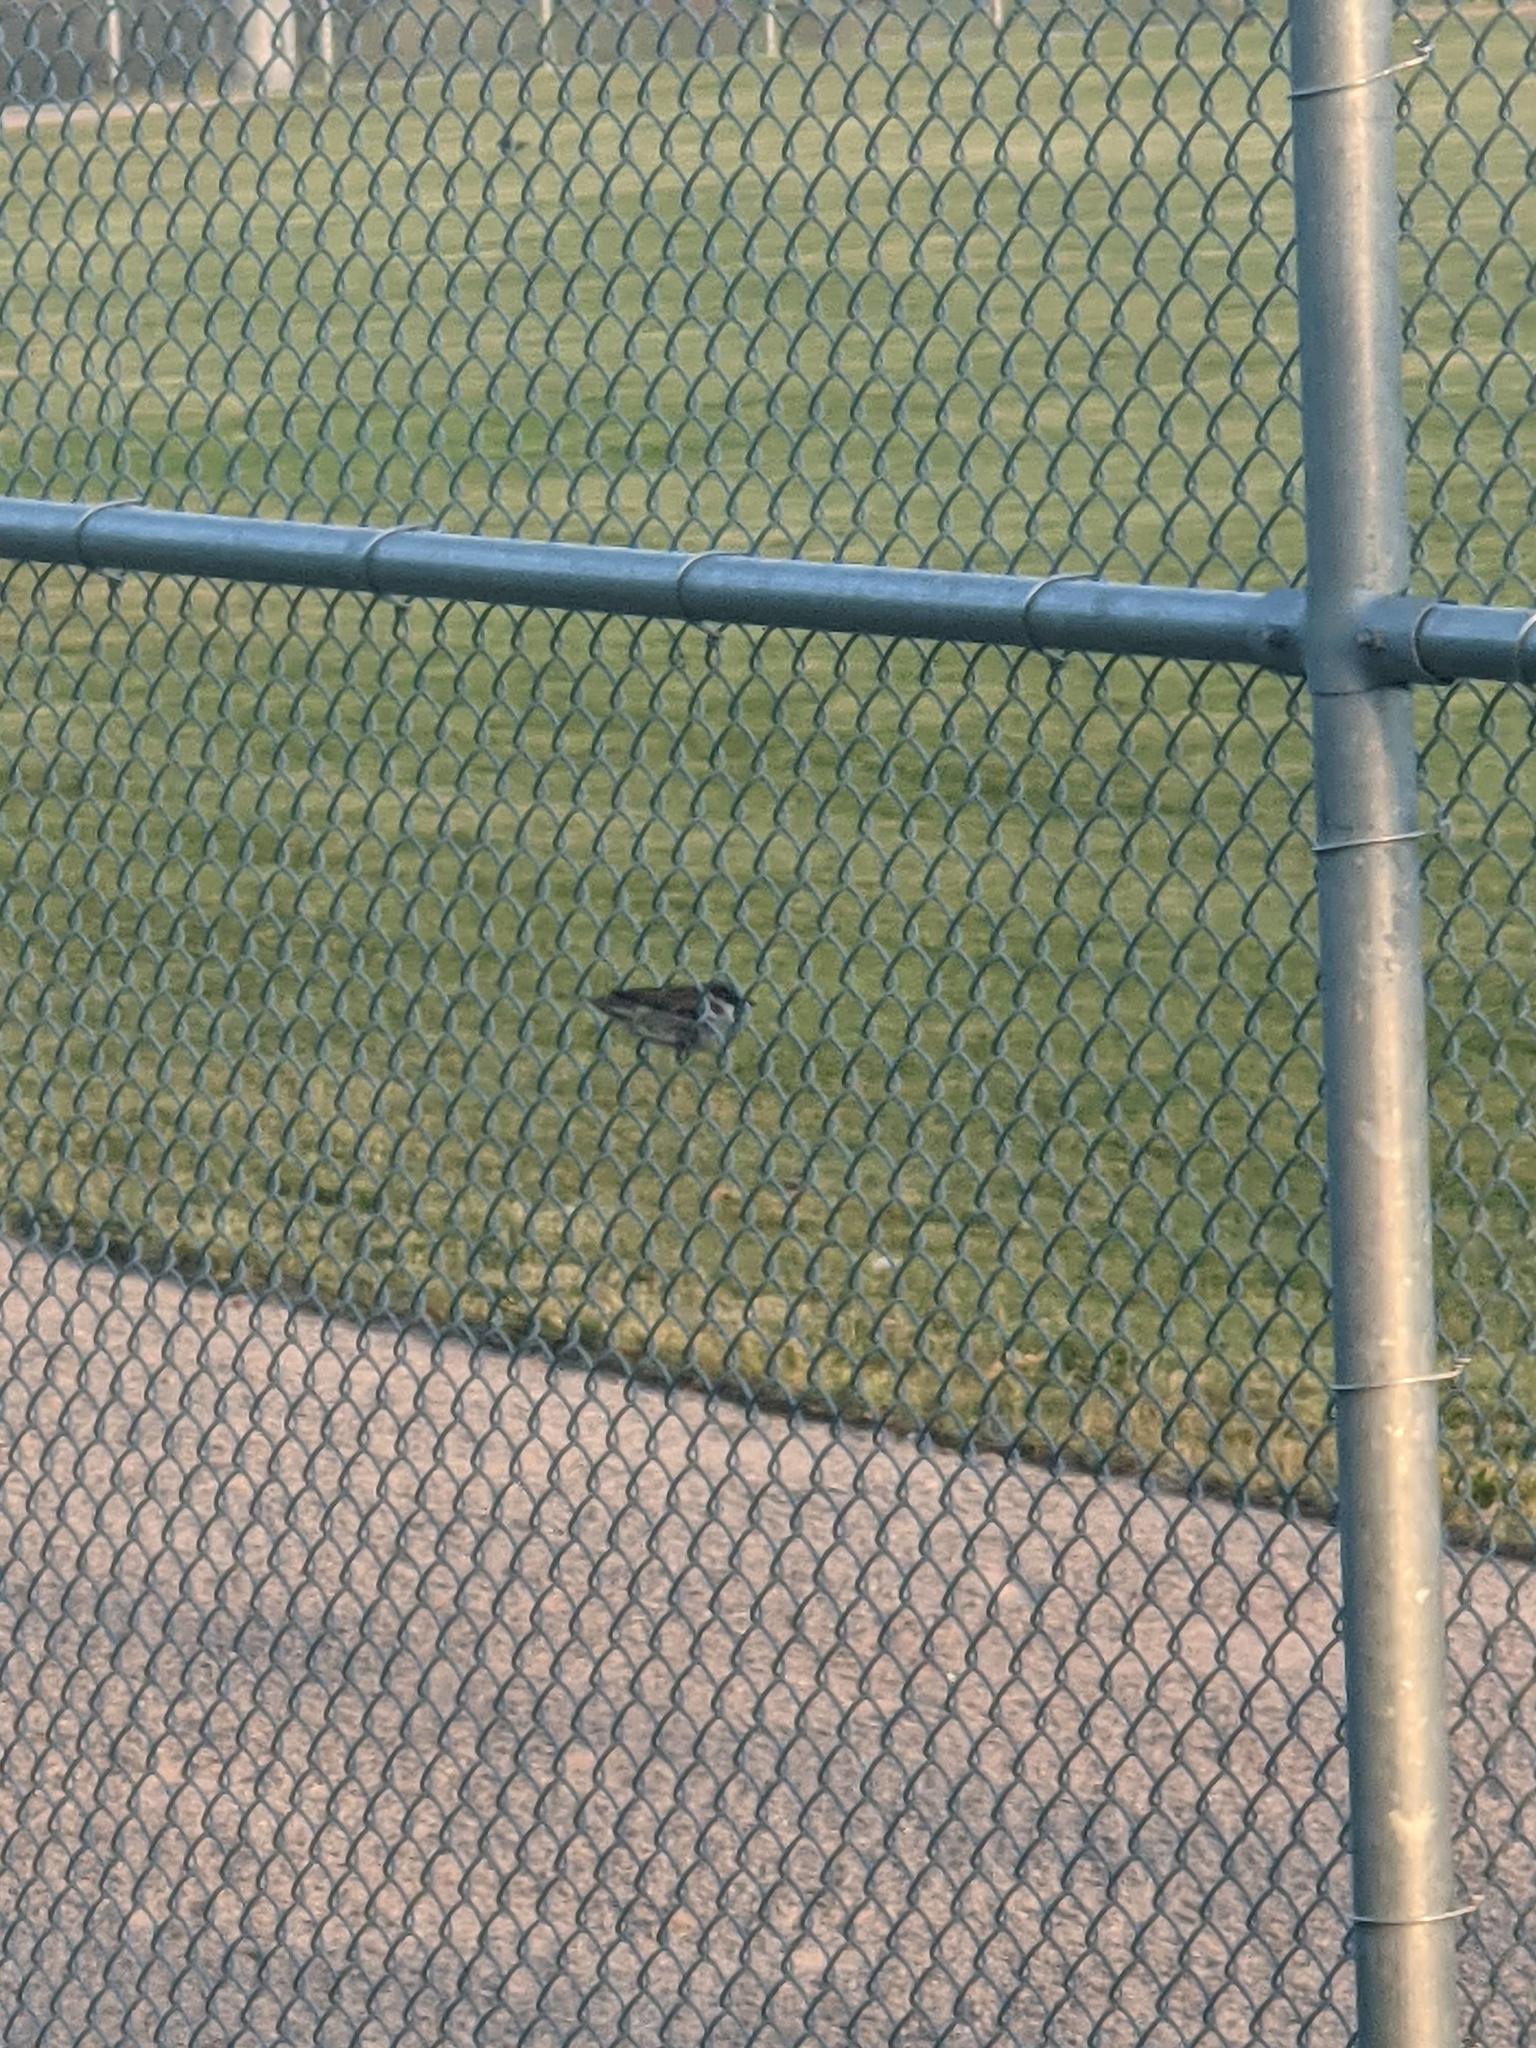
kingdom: Animalia
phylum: Chordata
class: Aves
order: Passeriformes
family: Passeridae
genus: Passer
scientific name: Passer domesticus
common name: House sparrow
